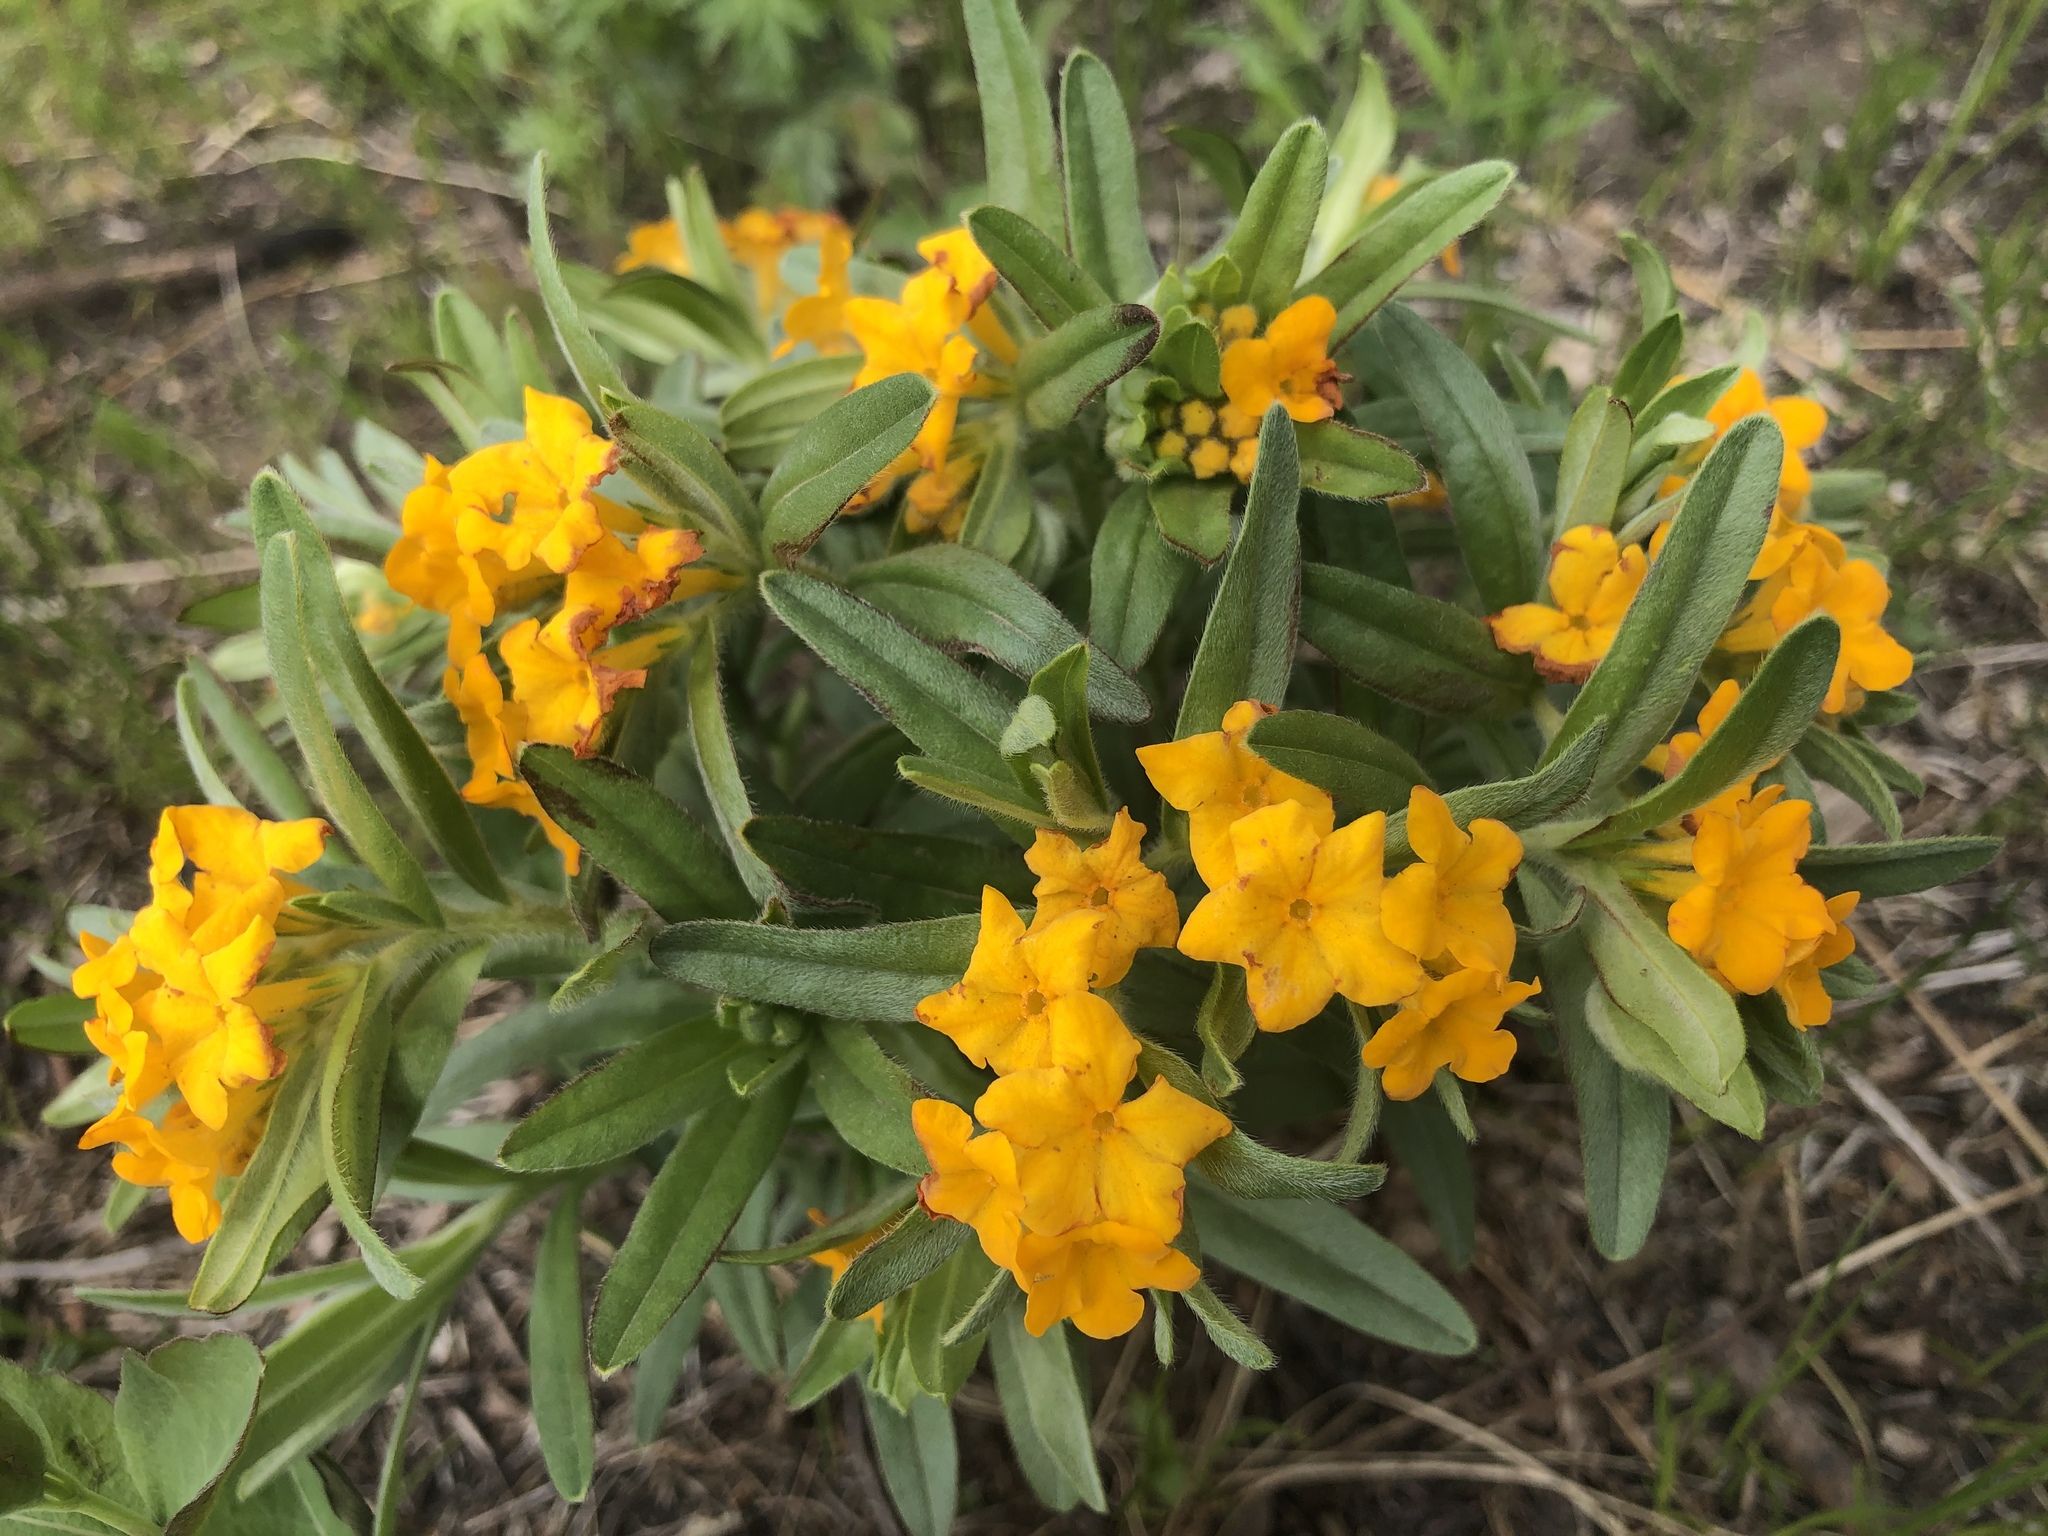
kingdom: Plantae
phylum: Tracheophyta
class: Magnoliopsida
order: Boraginales
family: Boraginaceae
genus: Lithospermum
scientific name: Lithospermum canescens
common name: Hoary puccoon
